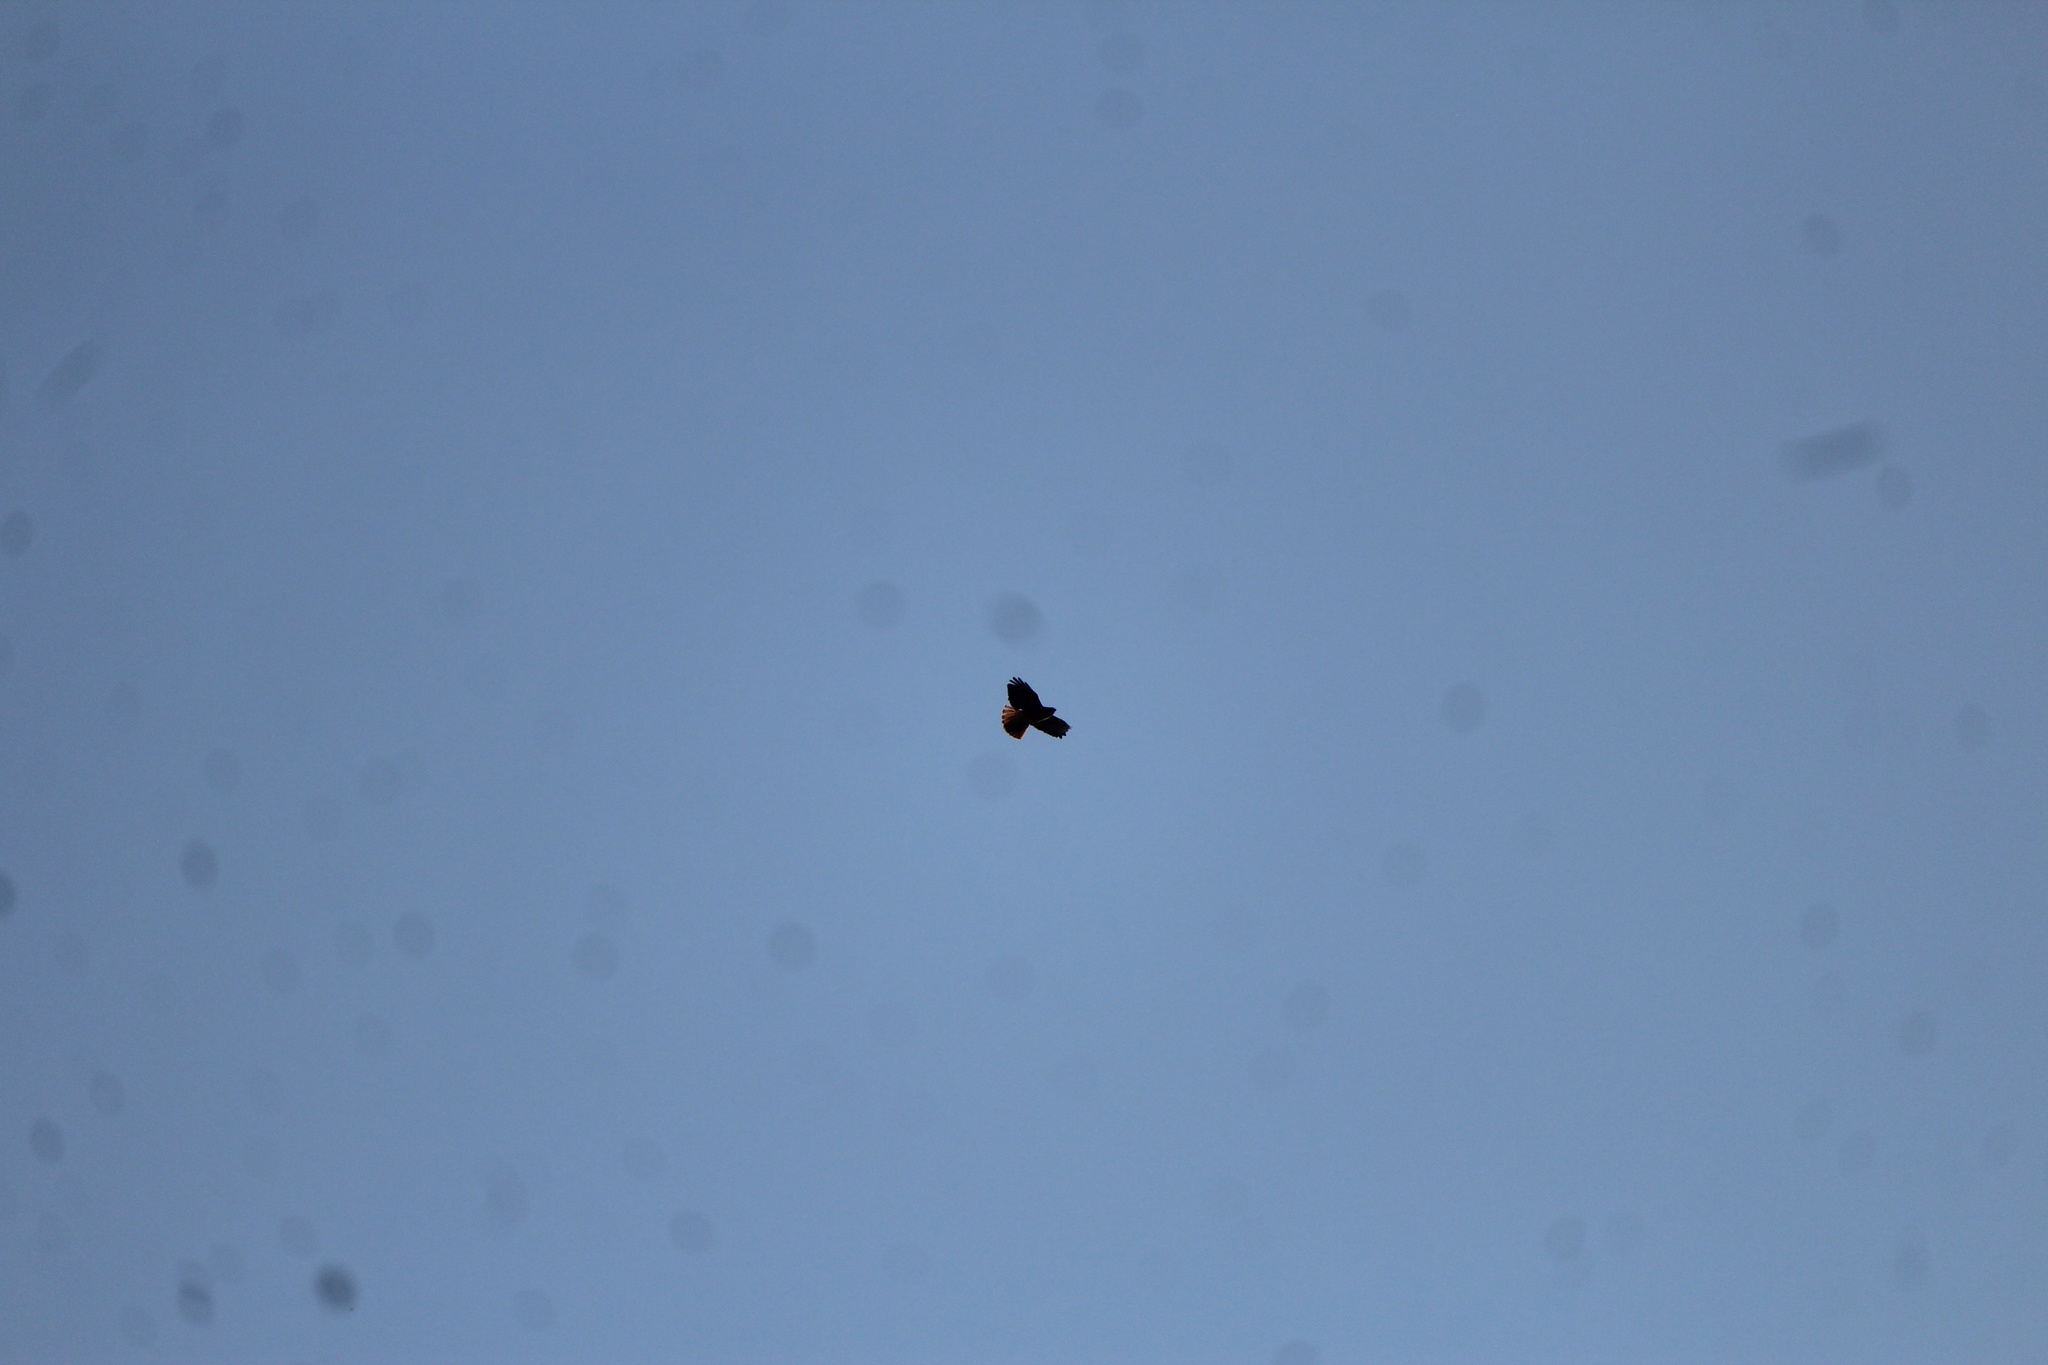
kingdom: Animalia
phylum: Chordata
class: Aves
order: Accipitriformes
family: Accipitridae
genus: Buteo
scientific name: Buteo jamaicensis
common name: Red-tailed hawk
